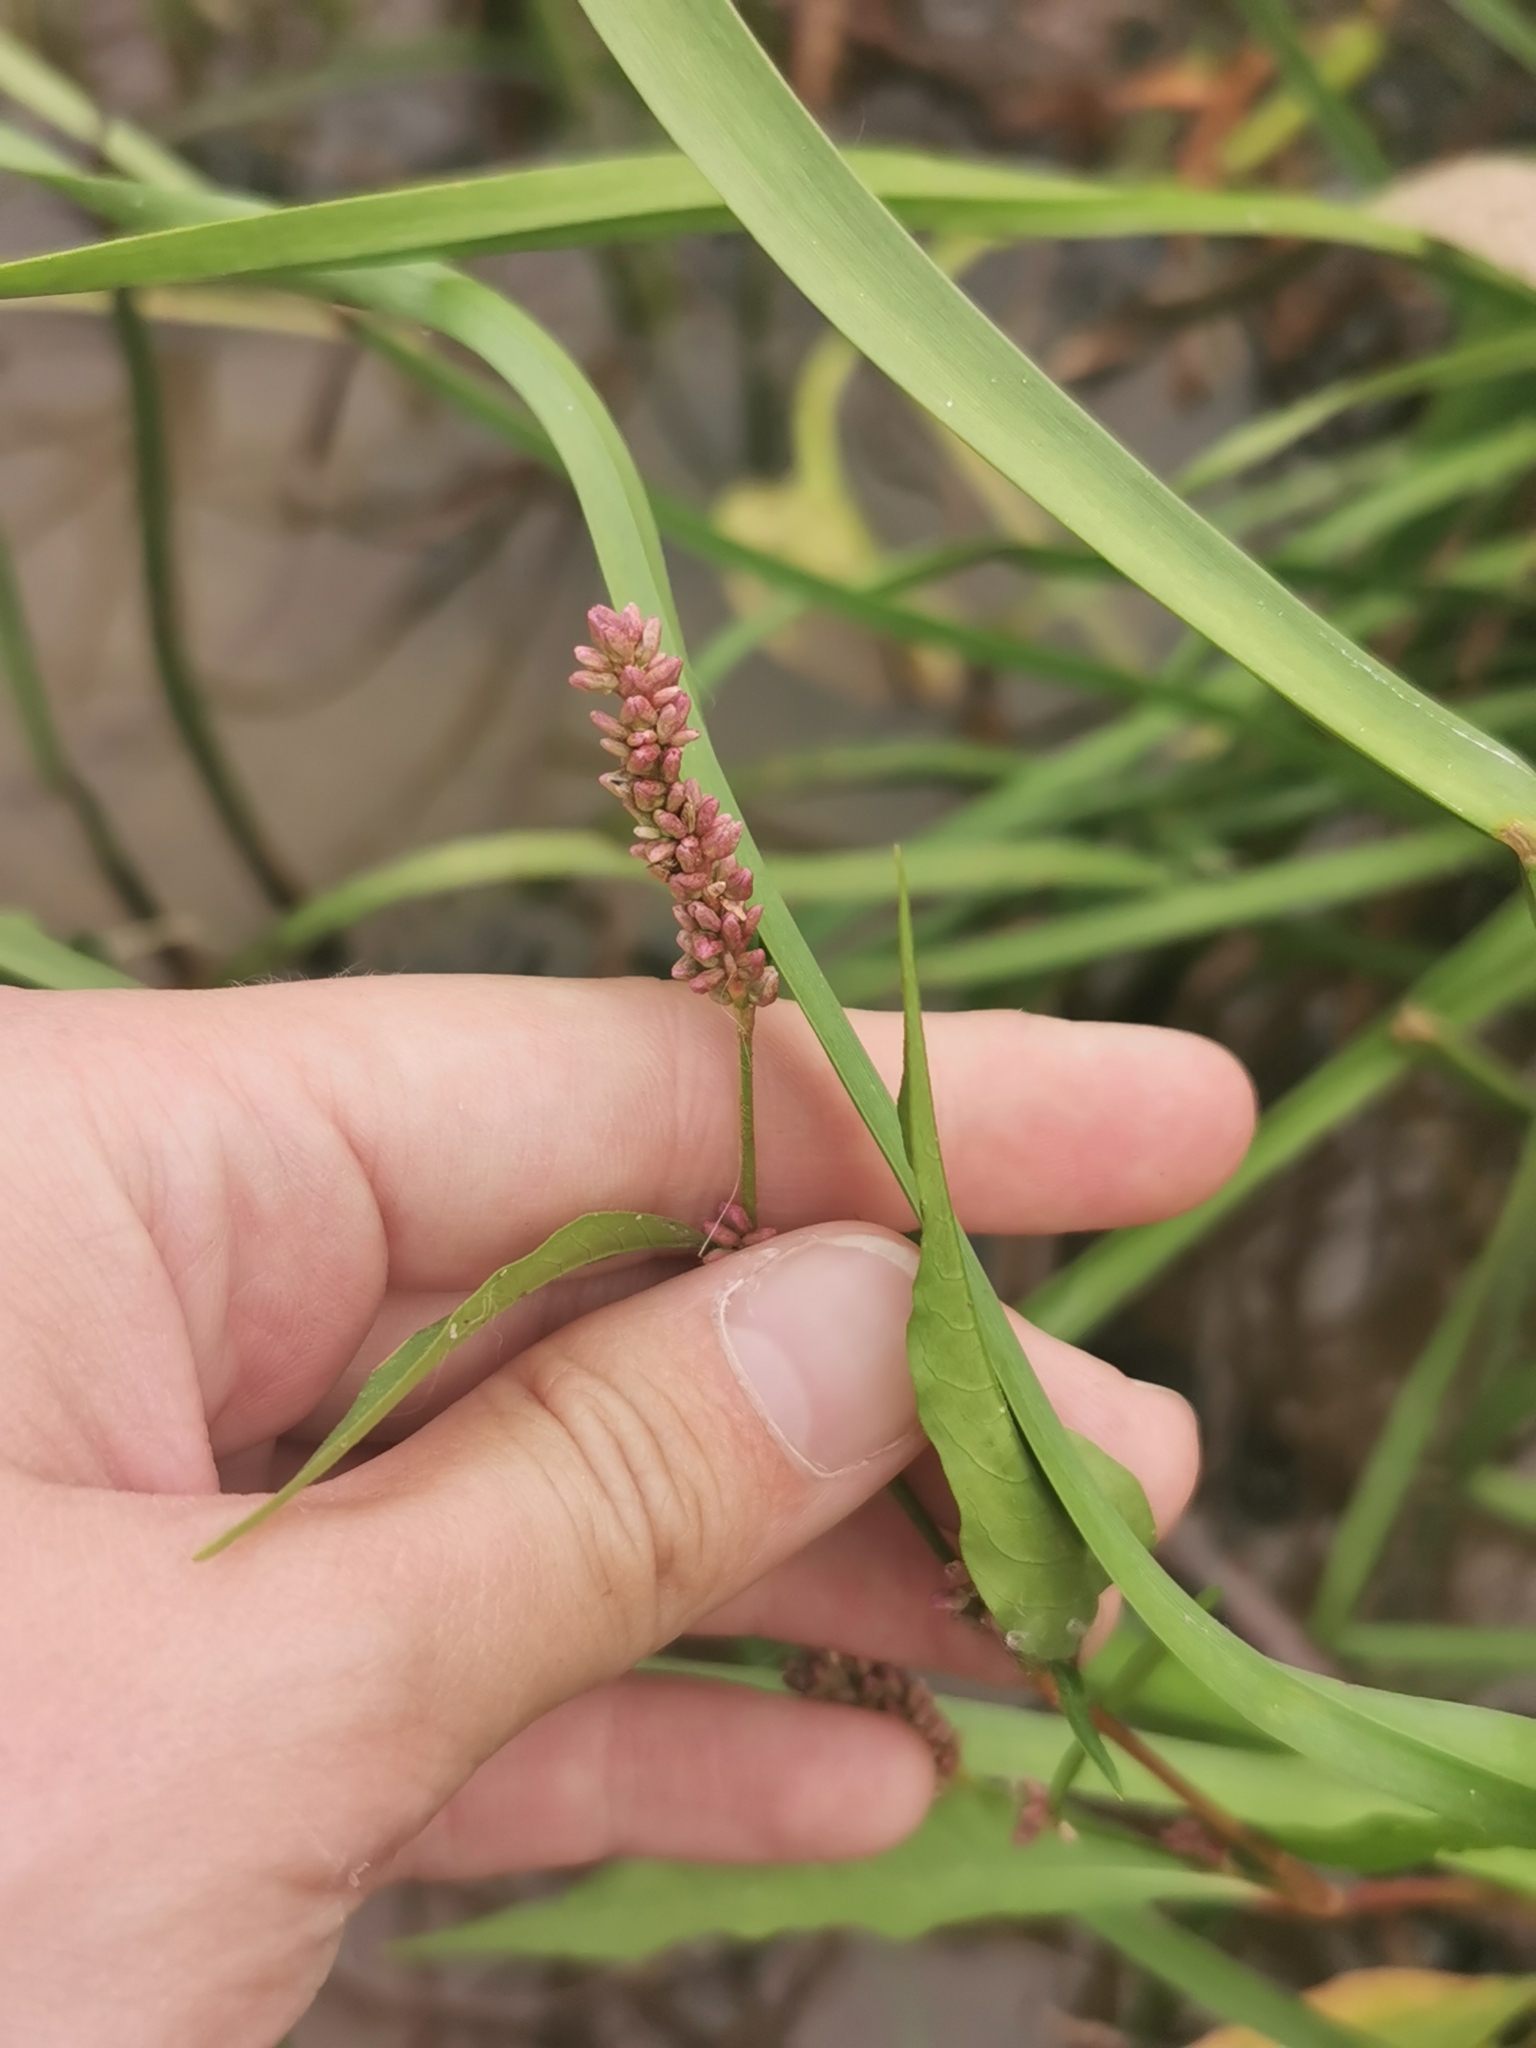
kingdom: Plantae
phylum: Tracheophyta
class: Magnoliopsida
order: Caryophyllales
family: Polygonaceae
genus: Persicaria
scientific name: Persicaria lapathifolia
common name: Curlytop knotweed
